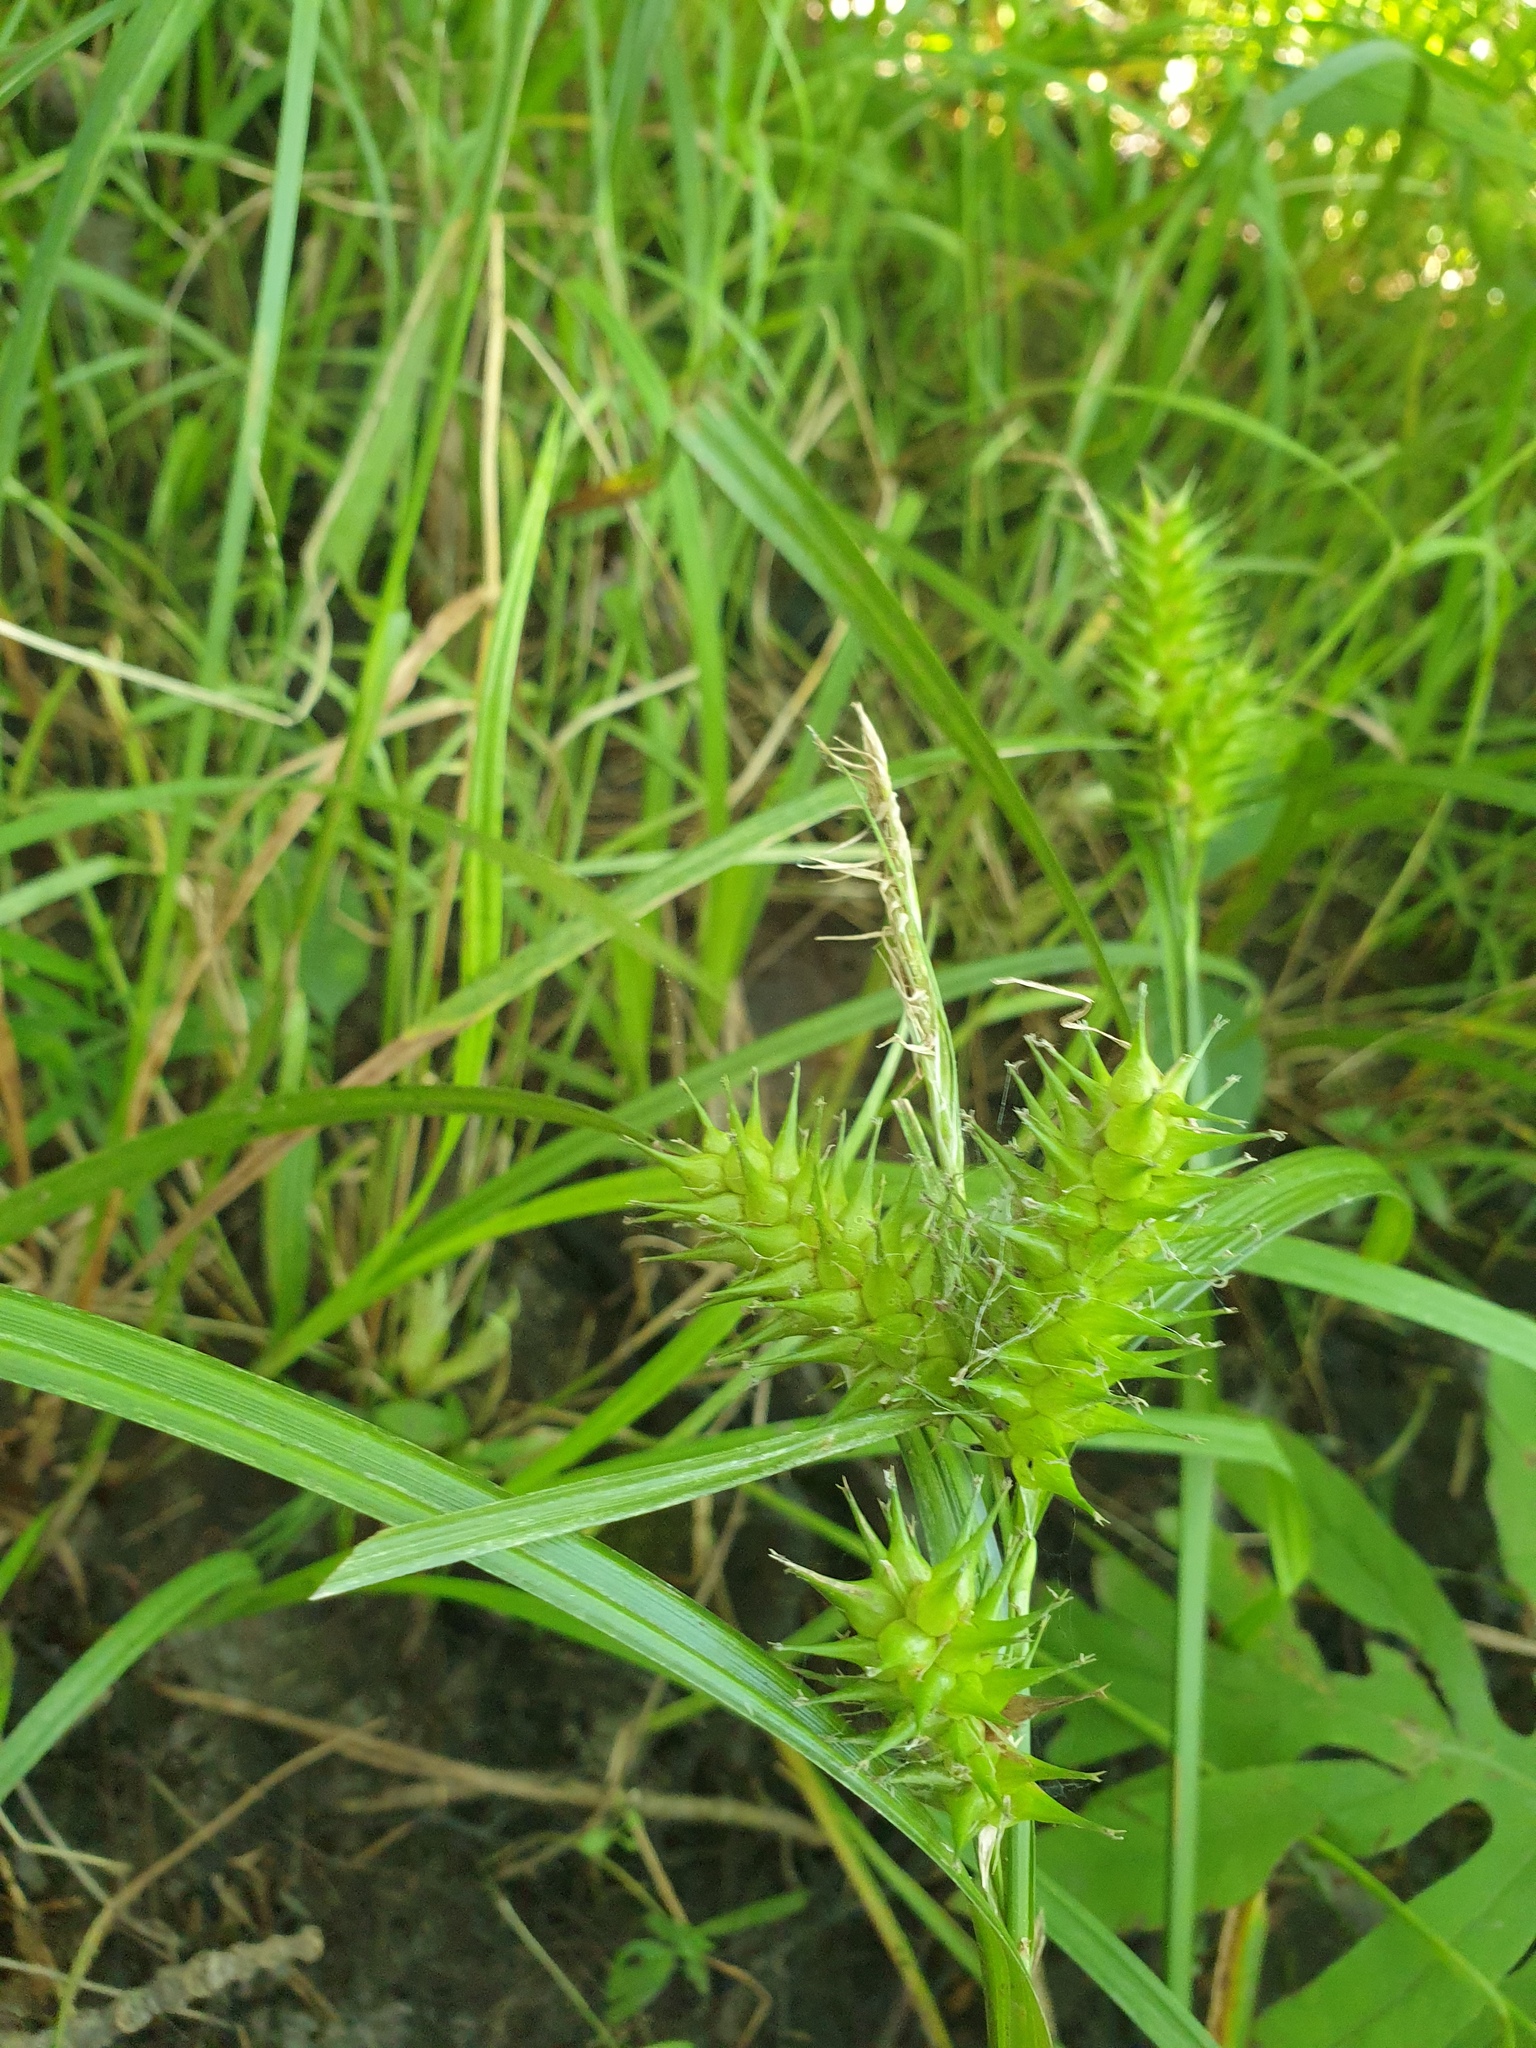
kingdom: Plantae
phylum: Tracheophyta
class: Liliopsida
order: Poales
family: Cyperaceae
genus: Carex
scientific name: Carex lupulina
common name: Hop sedge
